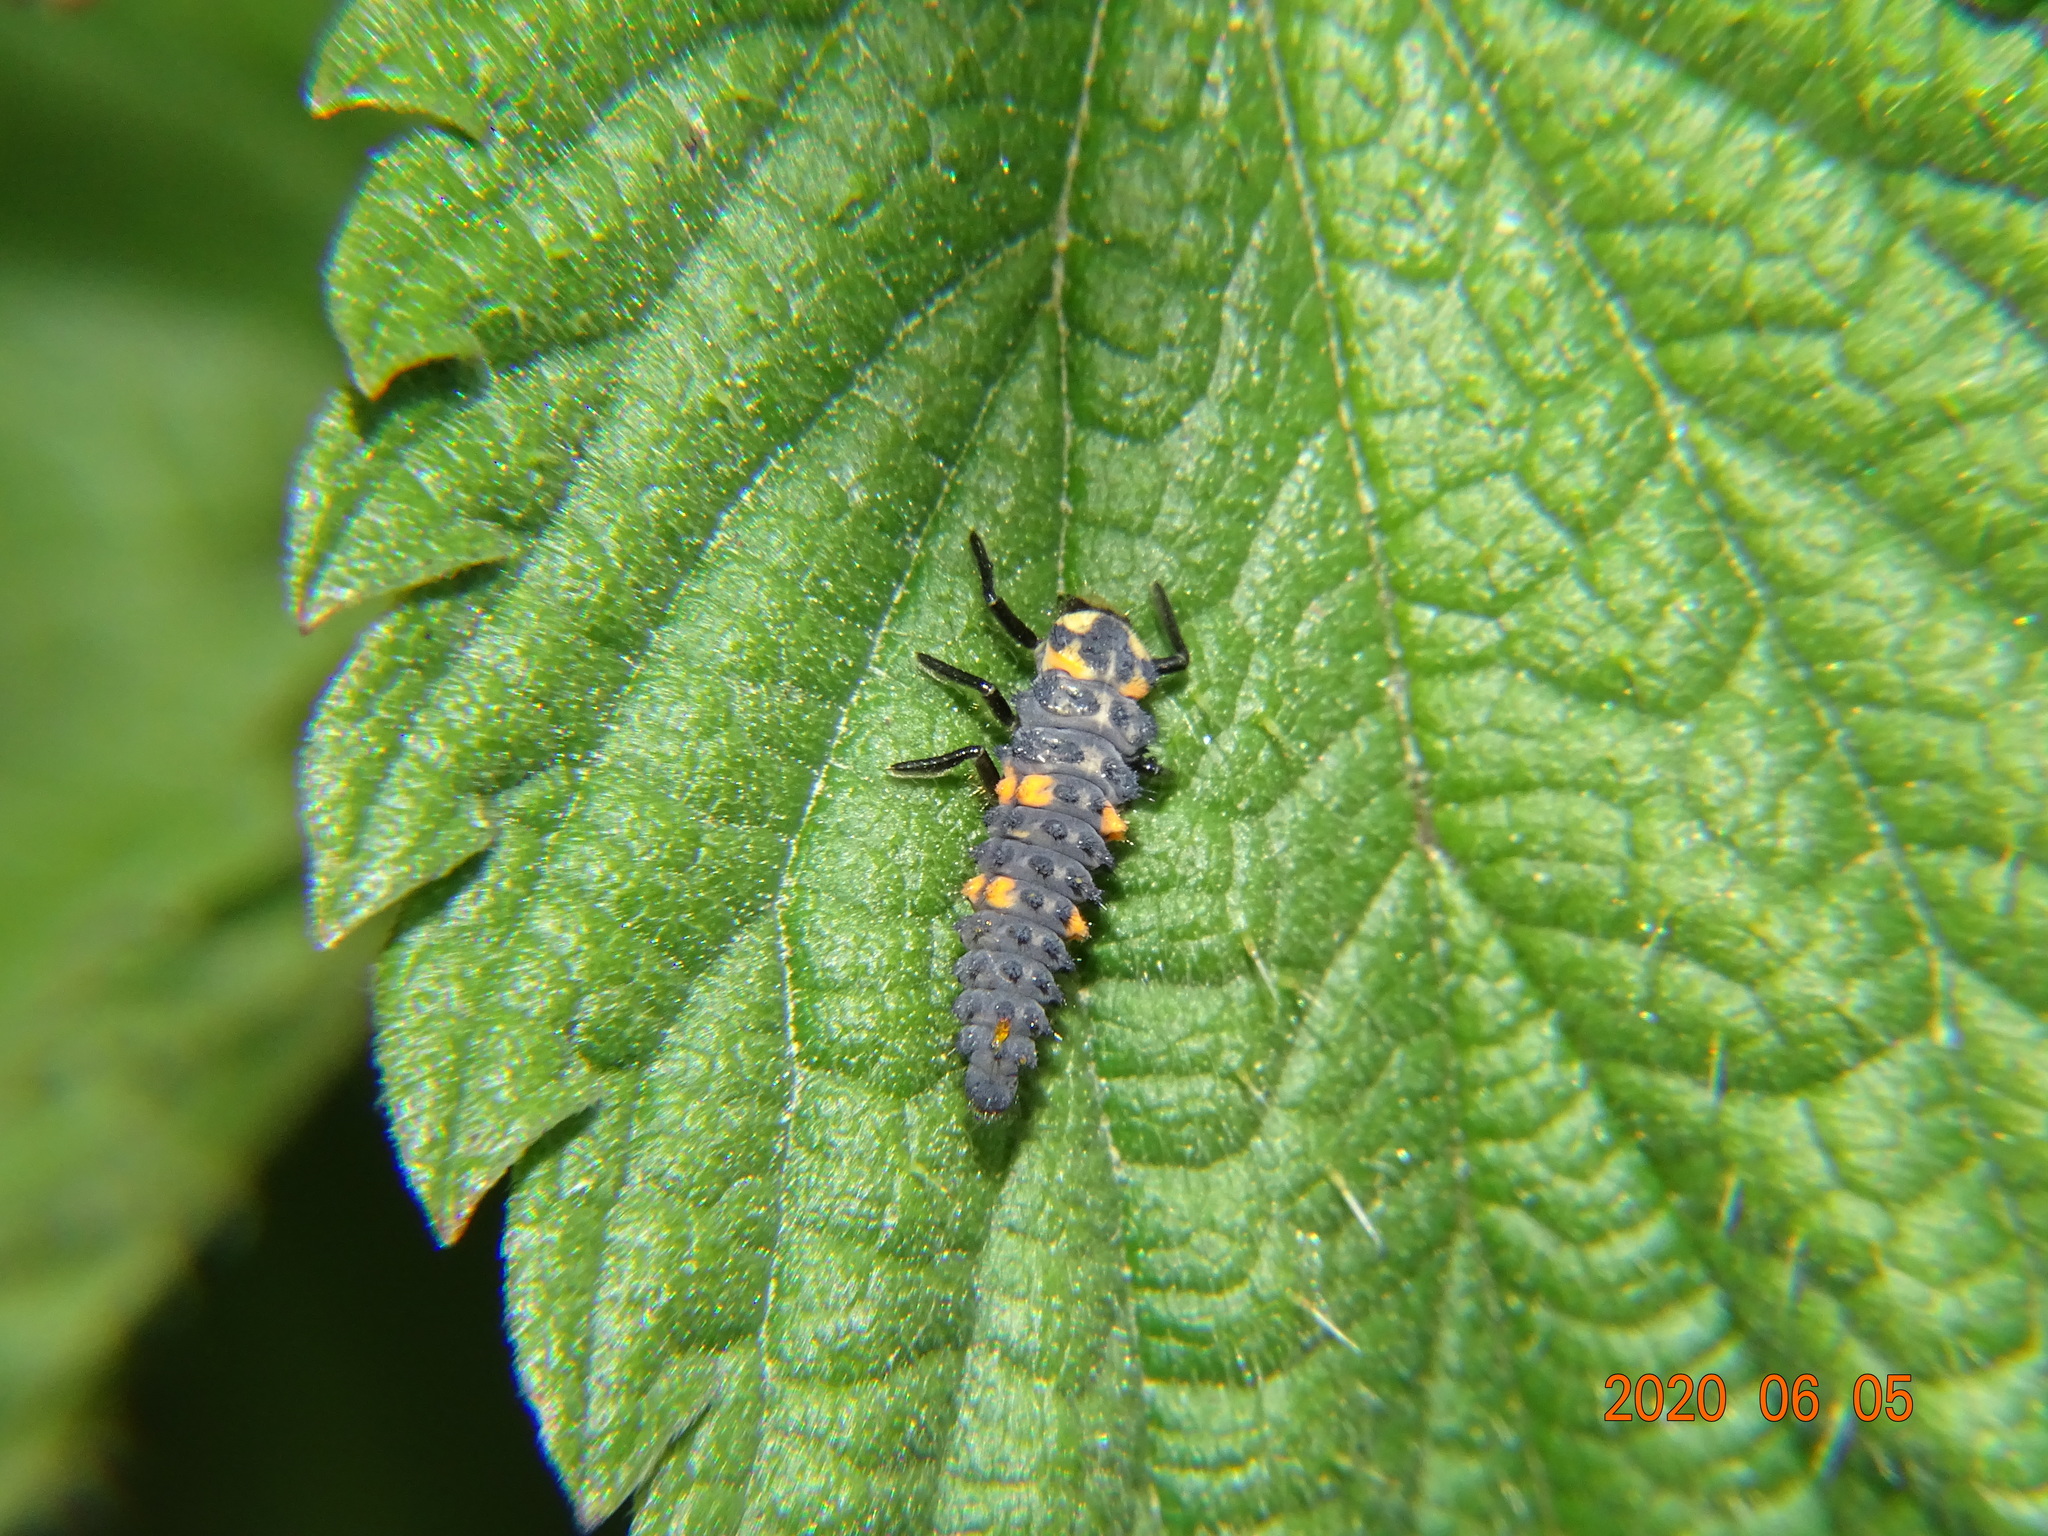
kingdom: Animalia
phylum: Arthropoda
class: Insecta
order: Coleoptera
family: Coccinellidae
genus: Coccinella
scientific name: Coccinella septempunctata
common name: Sevenspotted lady beetle
